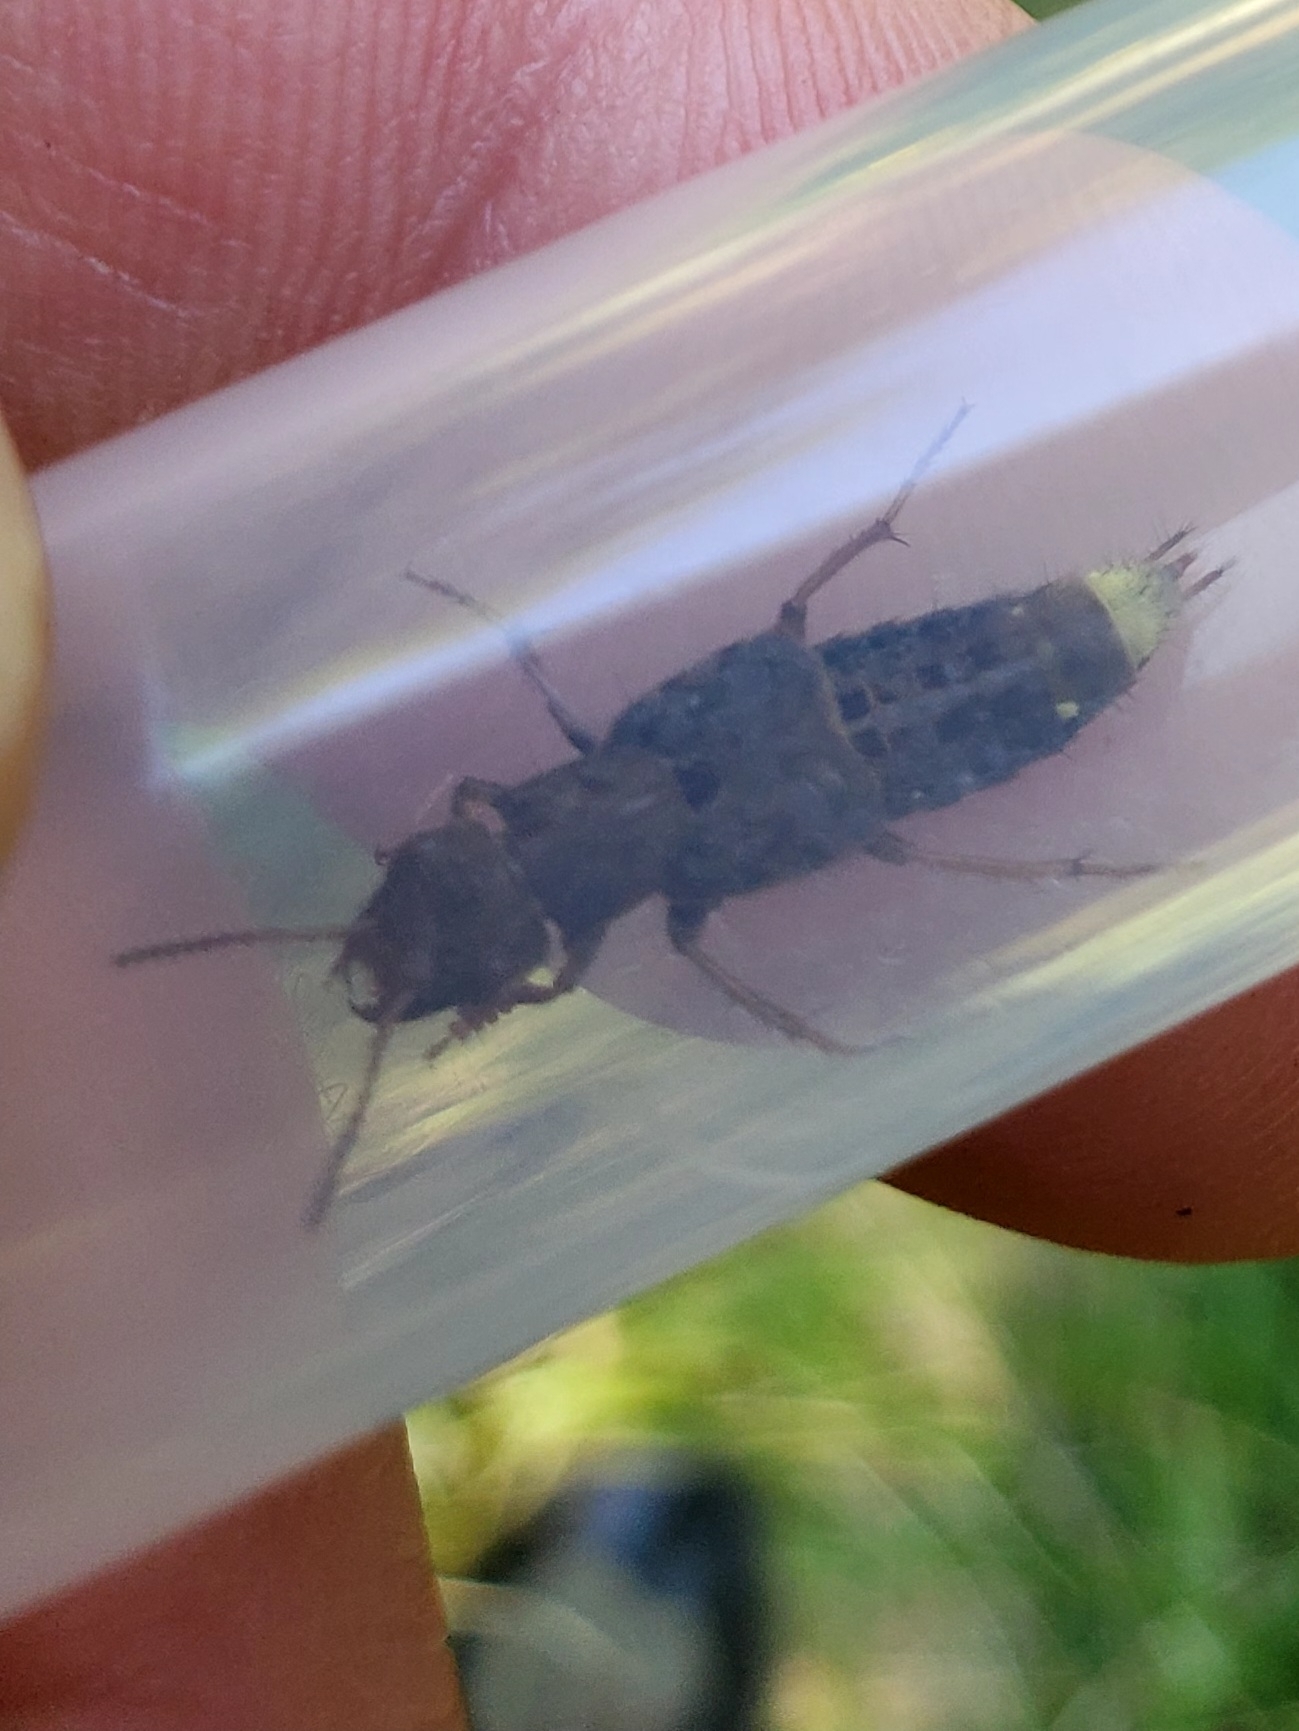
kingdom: Animalia
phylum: Arthropoda
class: Insecta
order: Coleoptera
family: Staphylinidae
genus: Ontholestes
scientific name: Ontholestes cingulatus
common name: Gold-and-brown rove beetle
